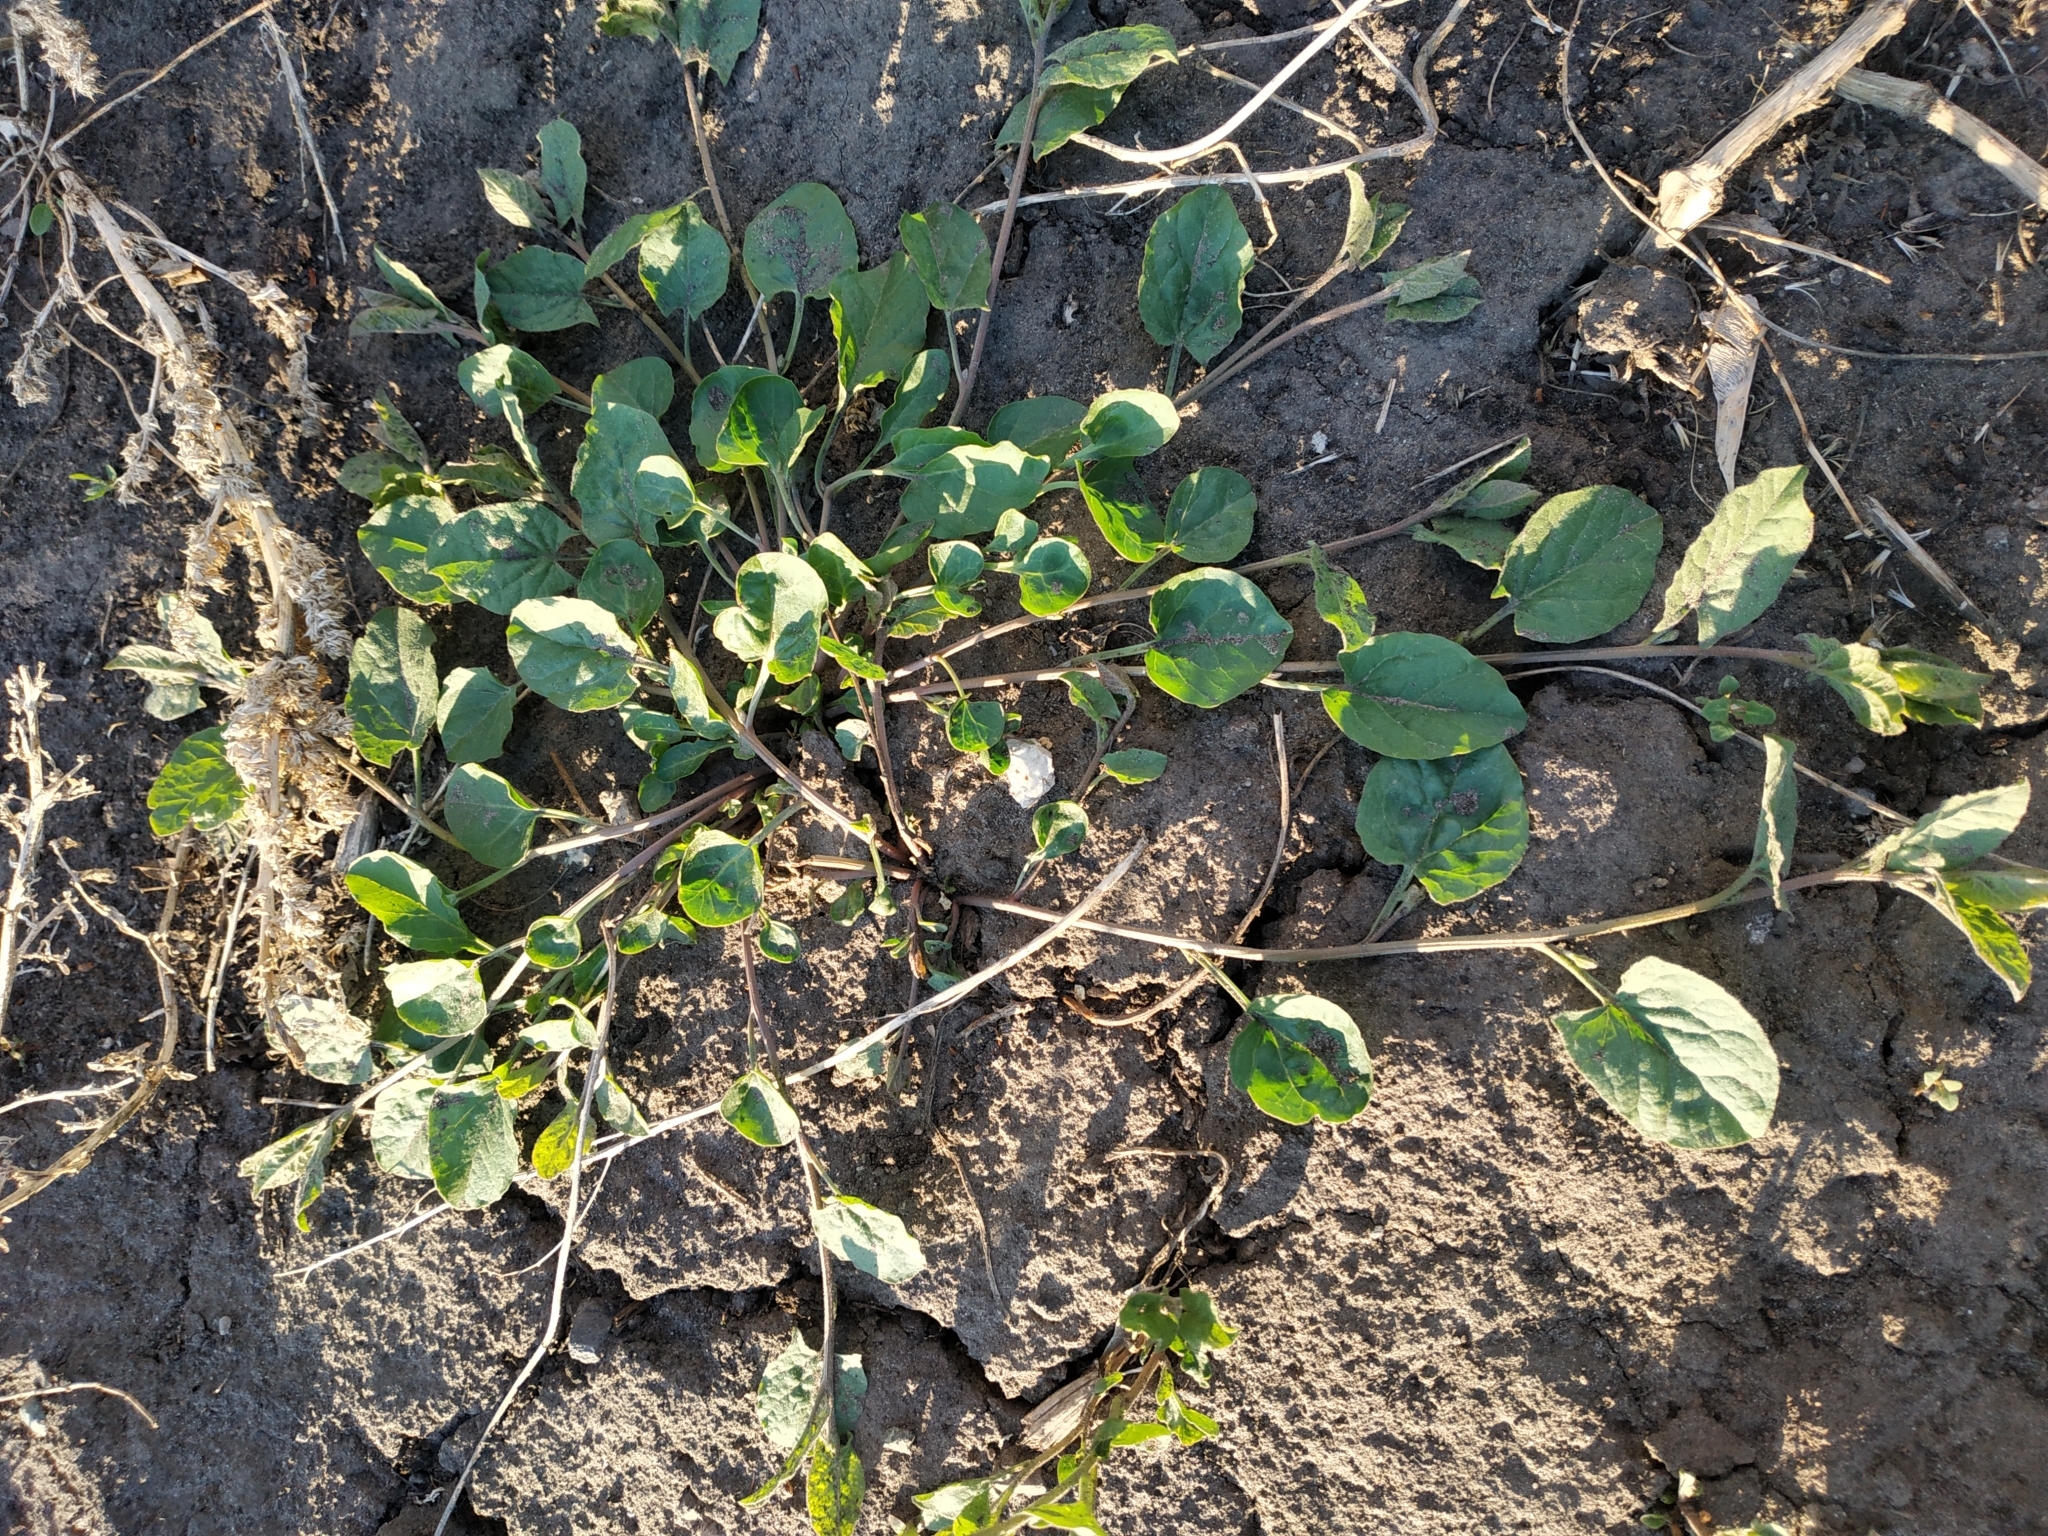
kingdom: Plantae
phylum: Tracheophyta
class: Magnoliopsida
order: Solanales
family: Convolvulaceae
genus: Convolvulus
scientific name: Convolvulus arvensis
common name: Field bindweed
